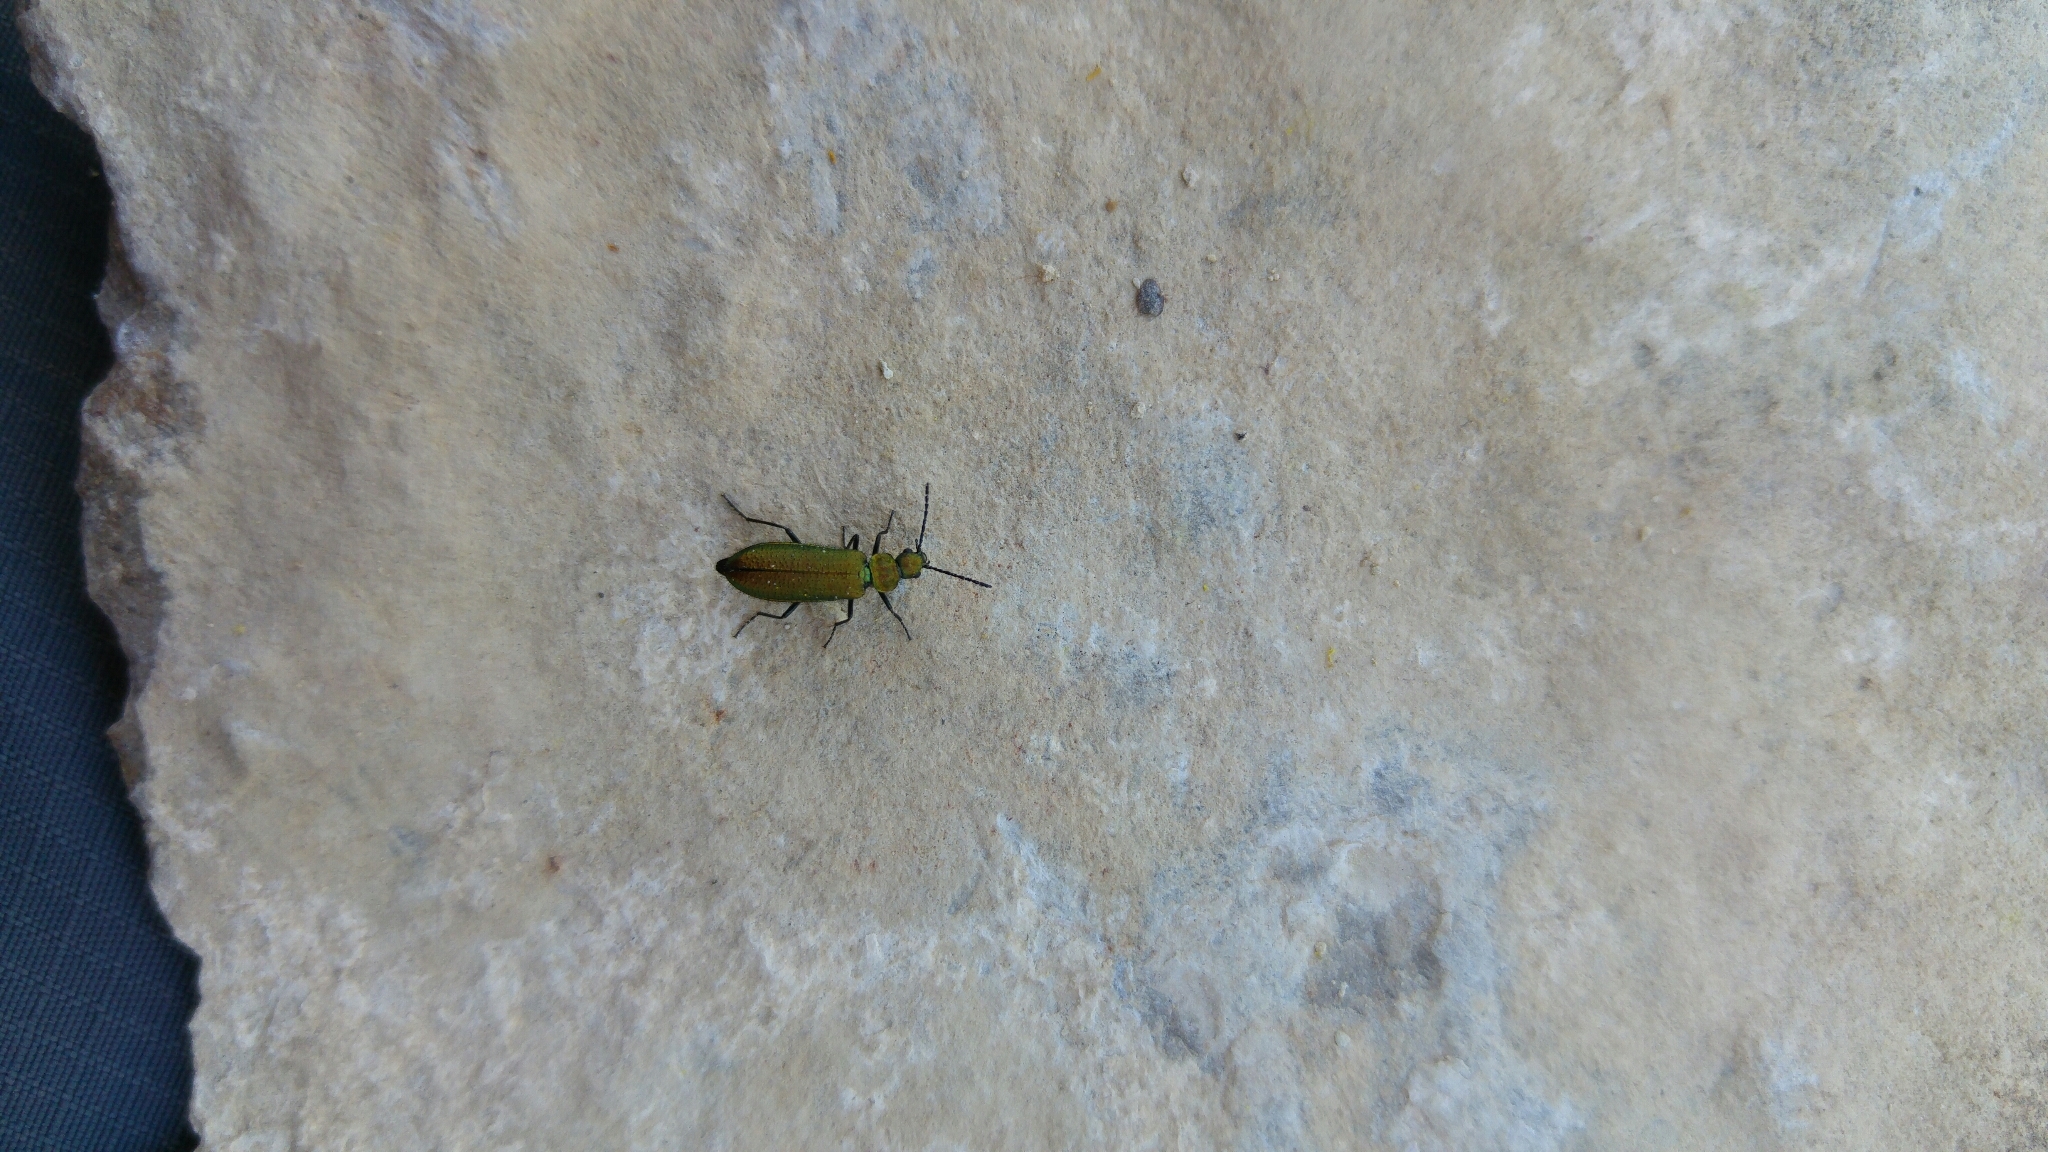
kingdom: Animalia
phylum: Arthropoda
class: Insecta
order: Coleoptera
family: Stenotrachelidae
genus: Stenotrachelus
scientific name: Stenotrachelus aeneus
